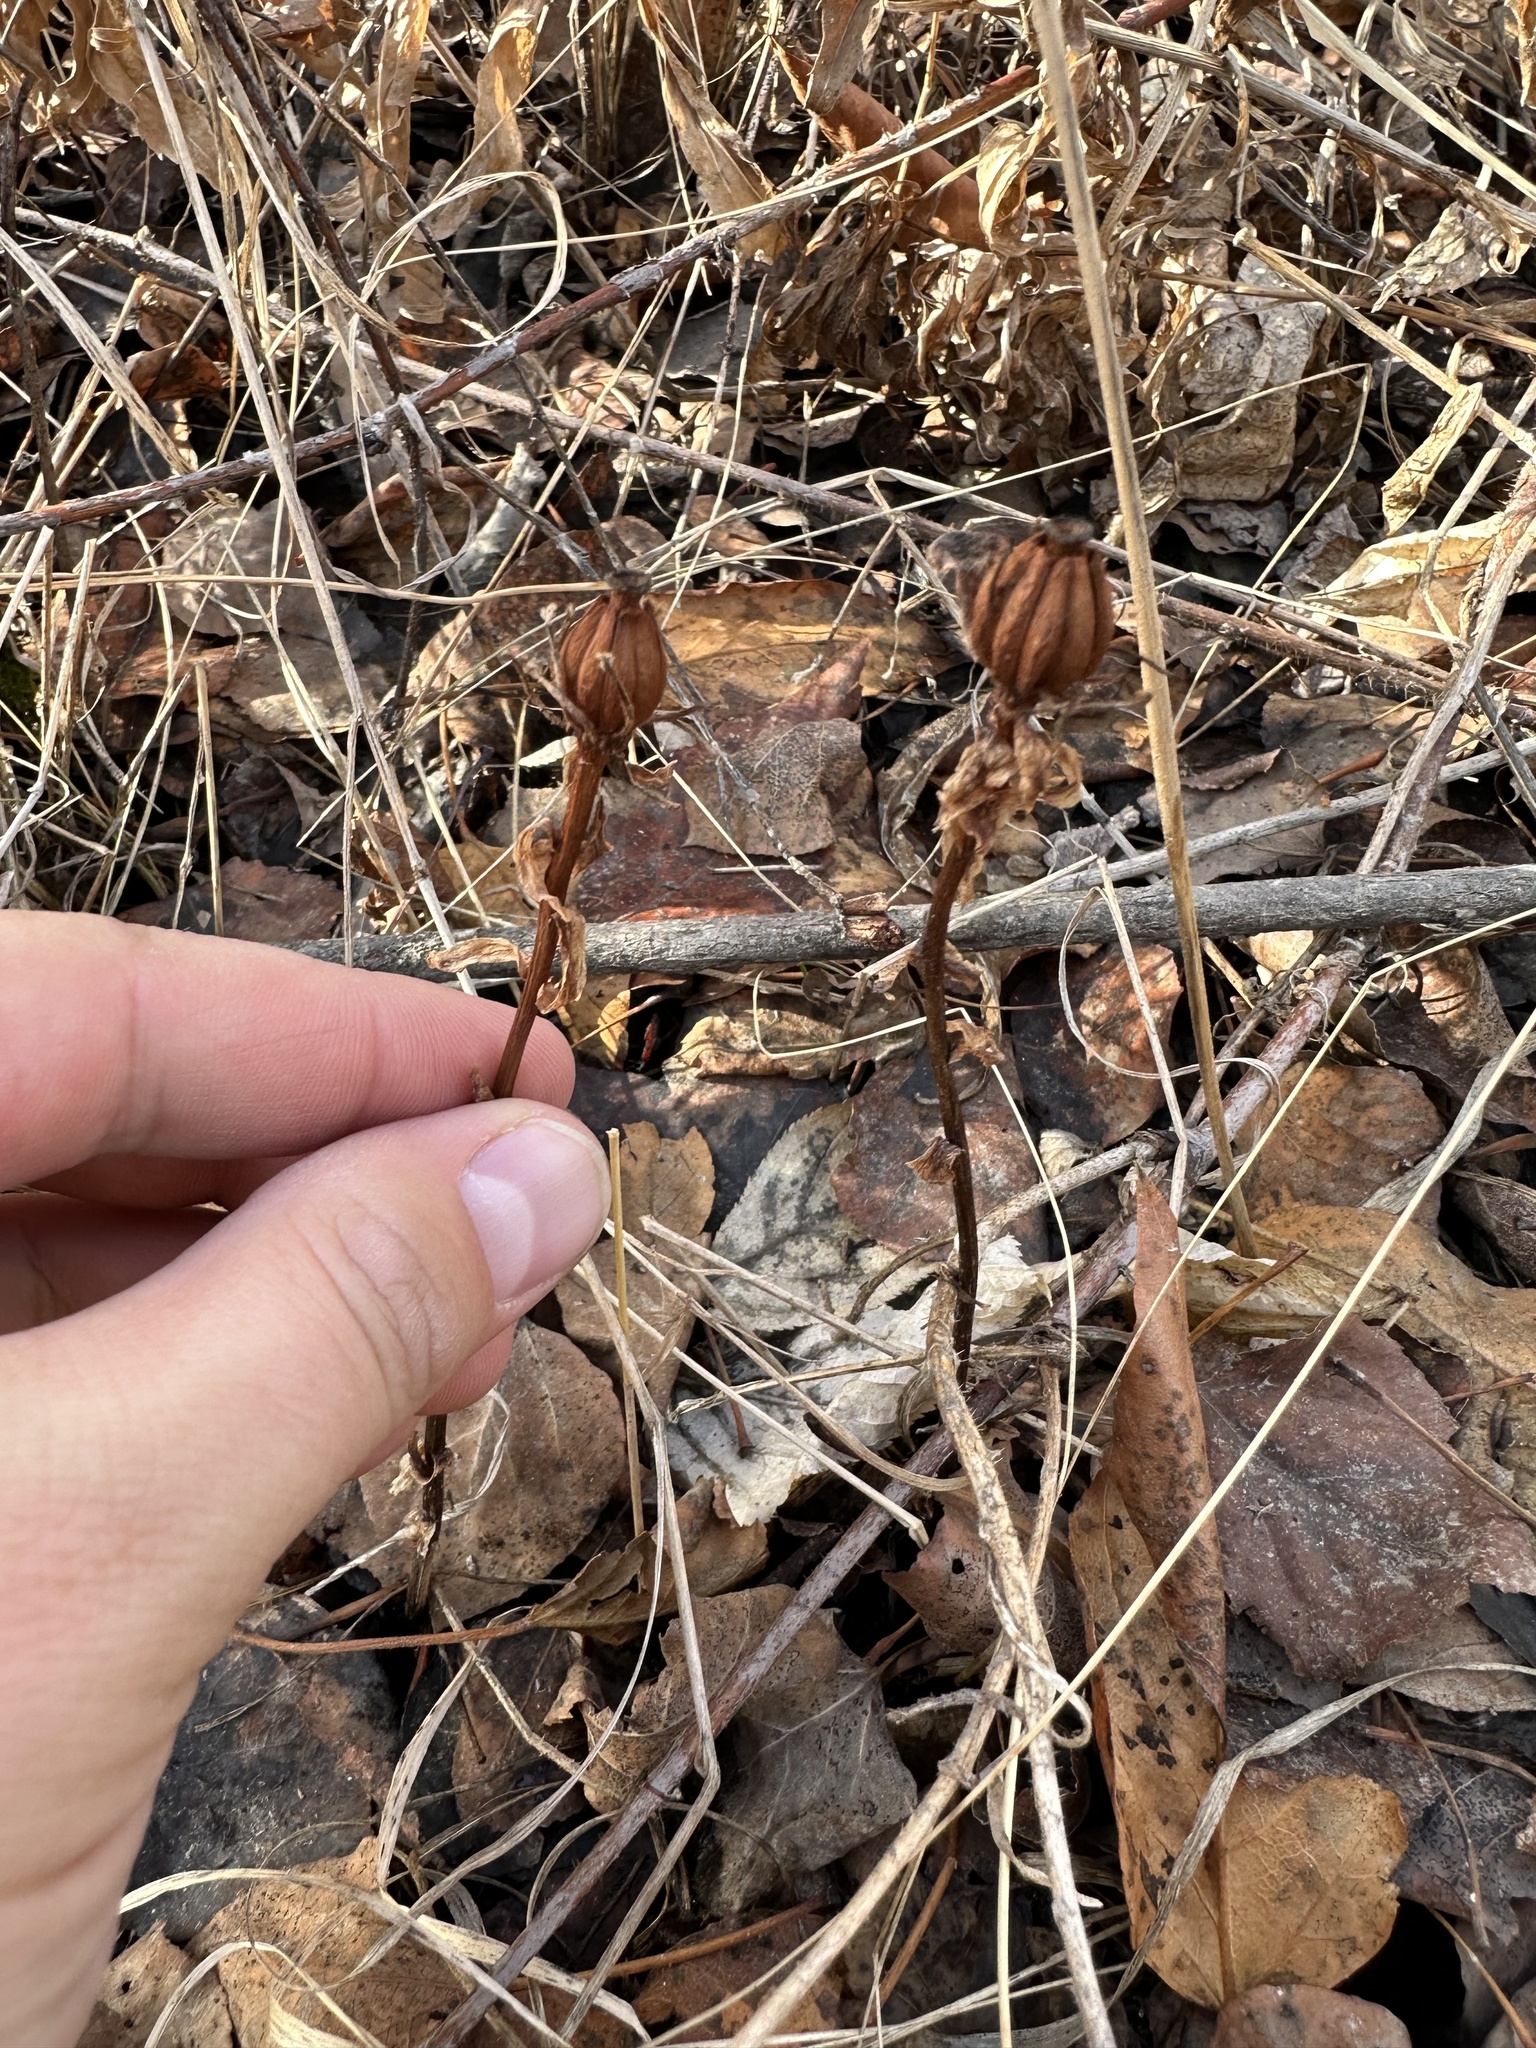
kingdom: Plantae
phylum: Tracheophyta
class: Magnoliopsida
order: Ericales
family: Ericaceae
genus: Monotropa
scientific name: Monotropa uniflora
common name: Convulsion root
